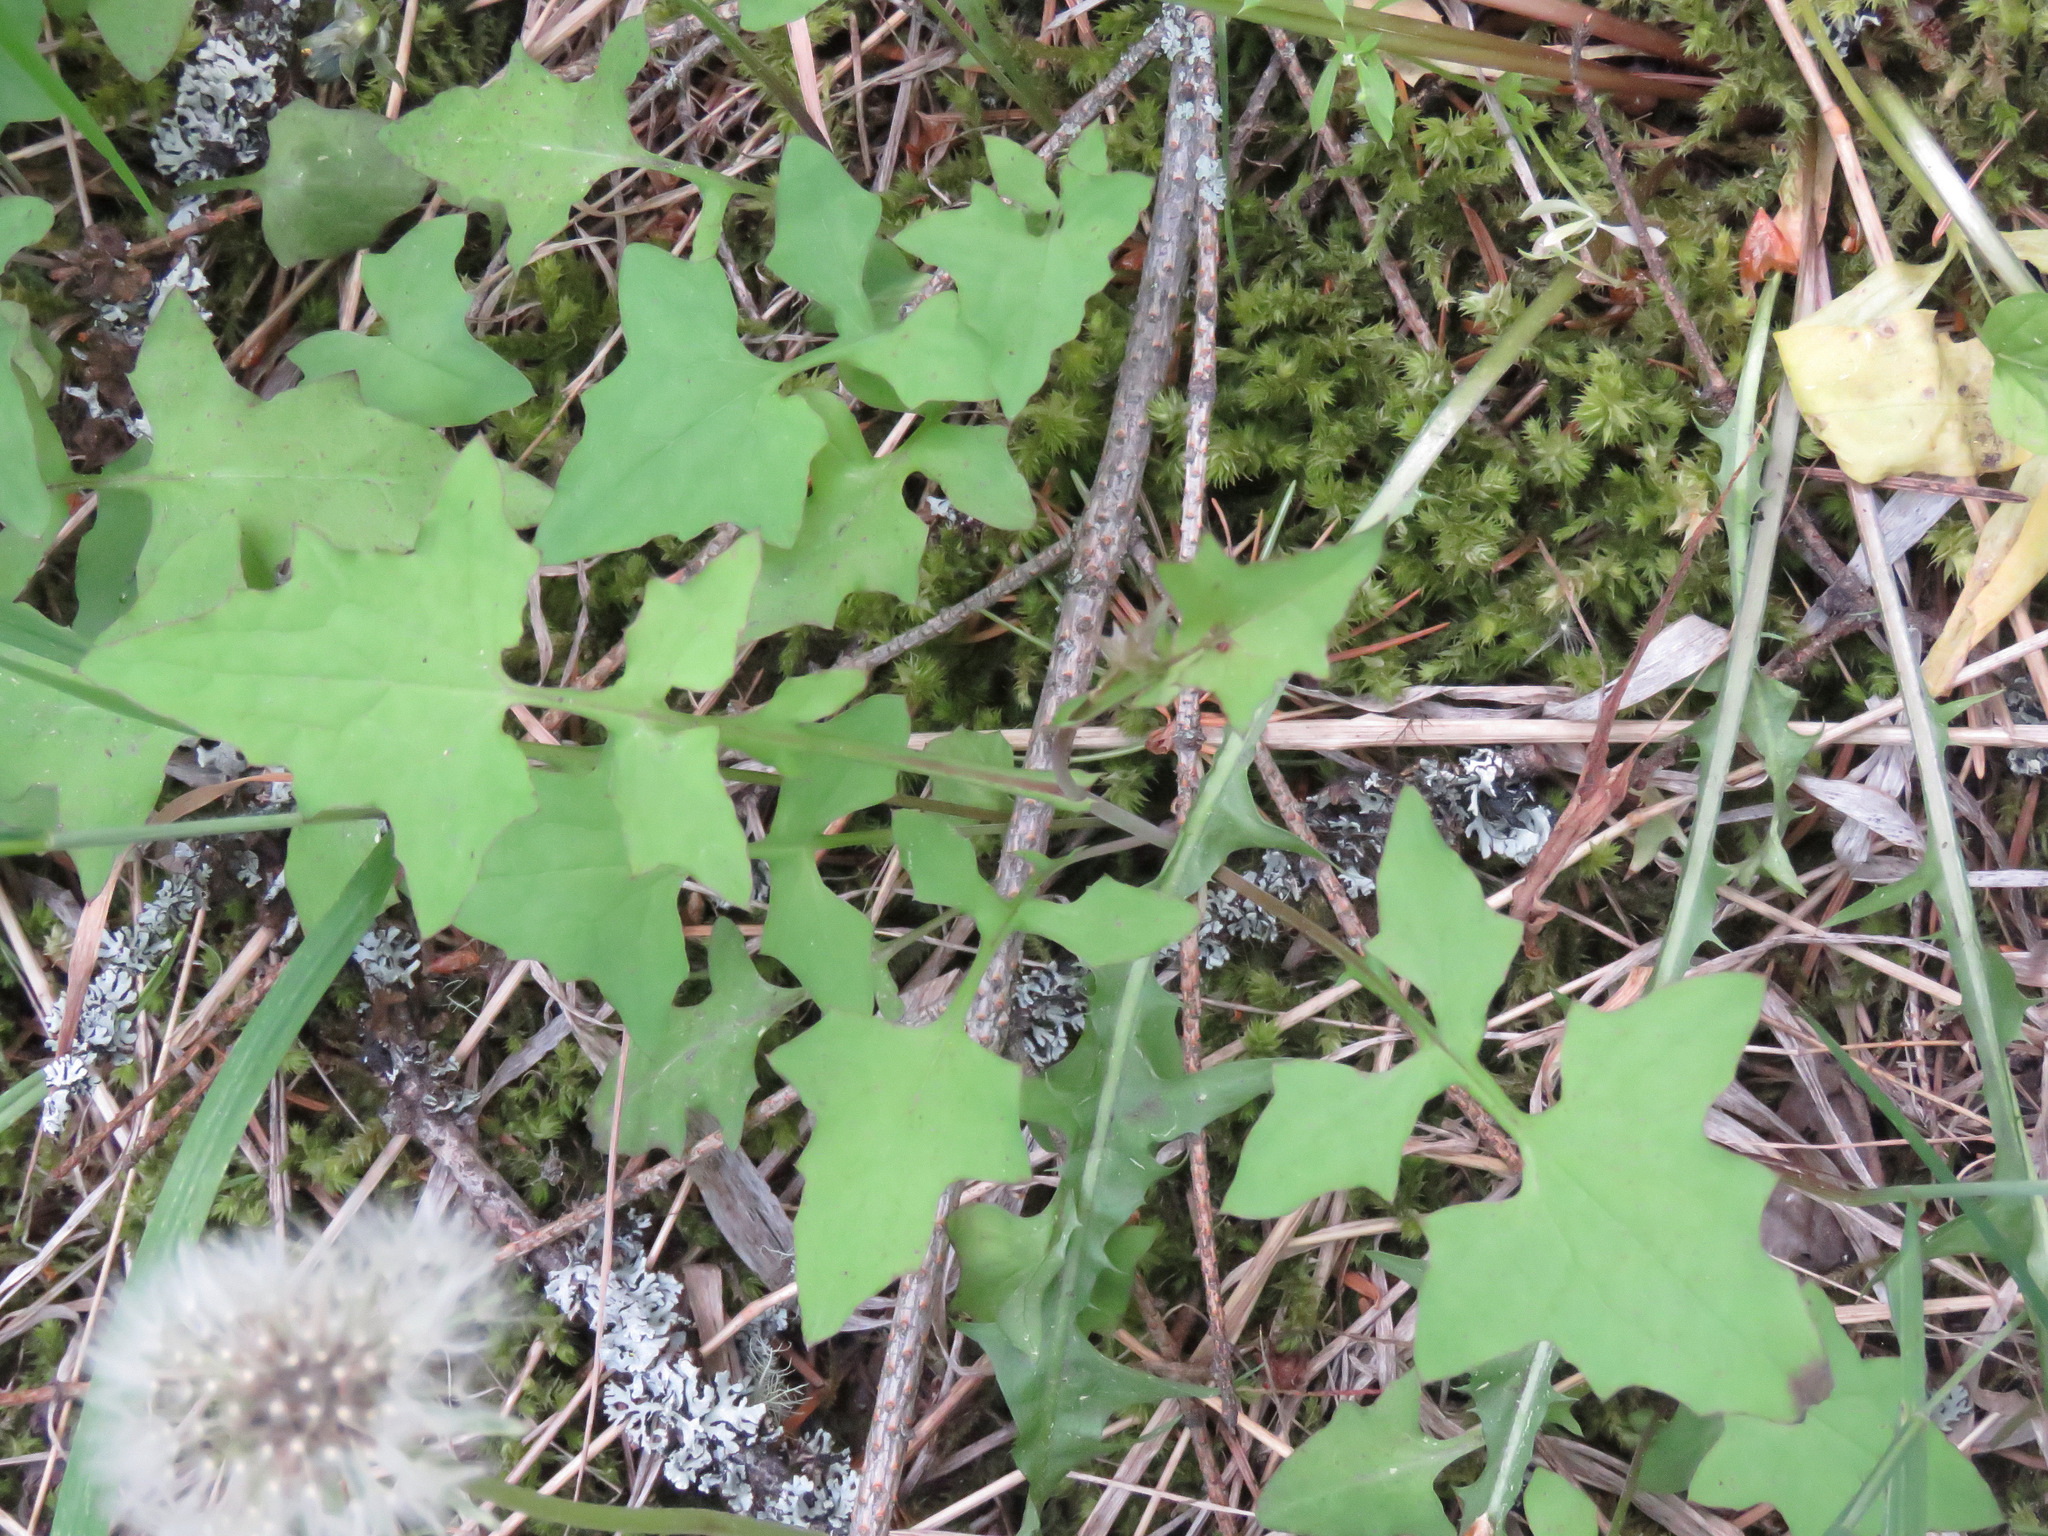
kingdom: Plantae
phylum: Tracheophyta
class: Magnoliopsida
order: Asterales
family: Asteraceae
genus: Mycelis
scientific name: Mycelis muralis
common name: Wall lettuce
